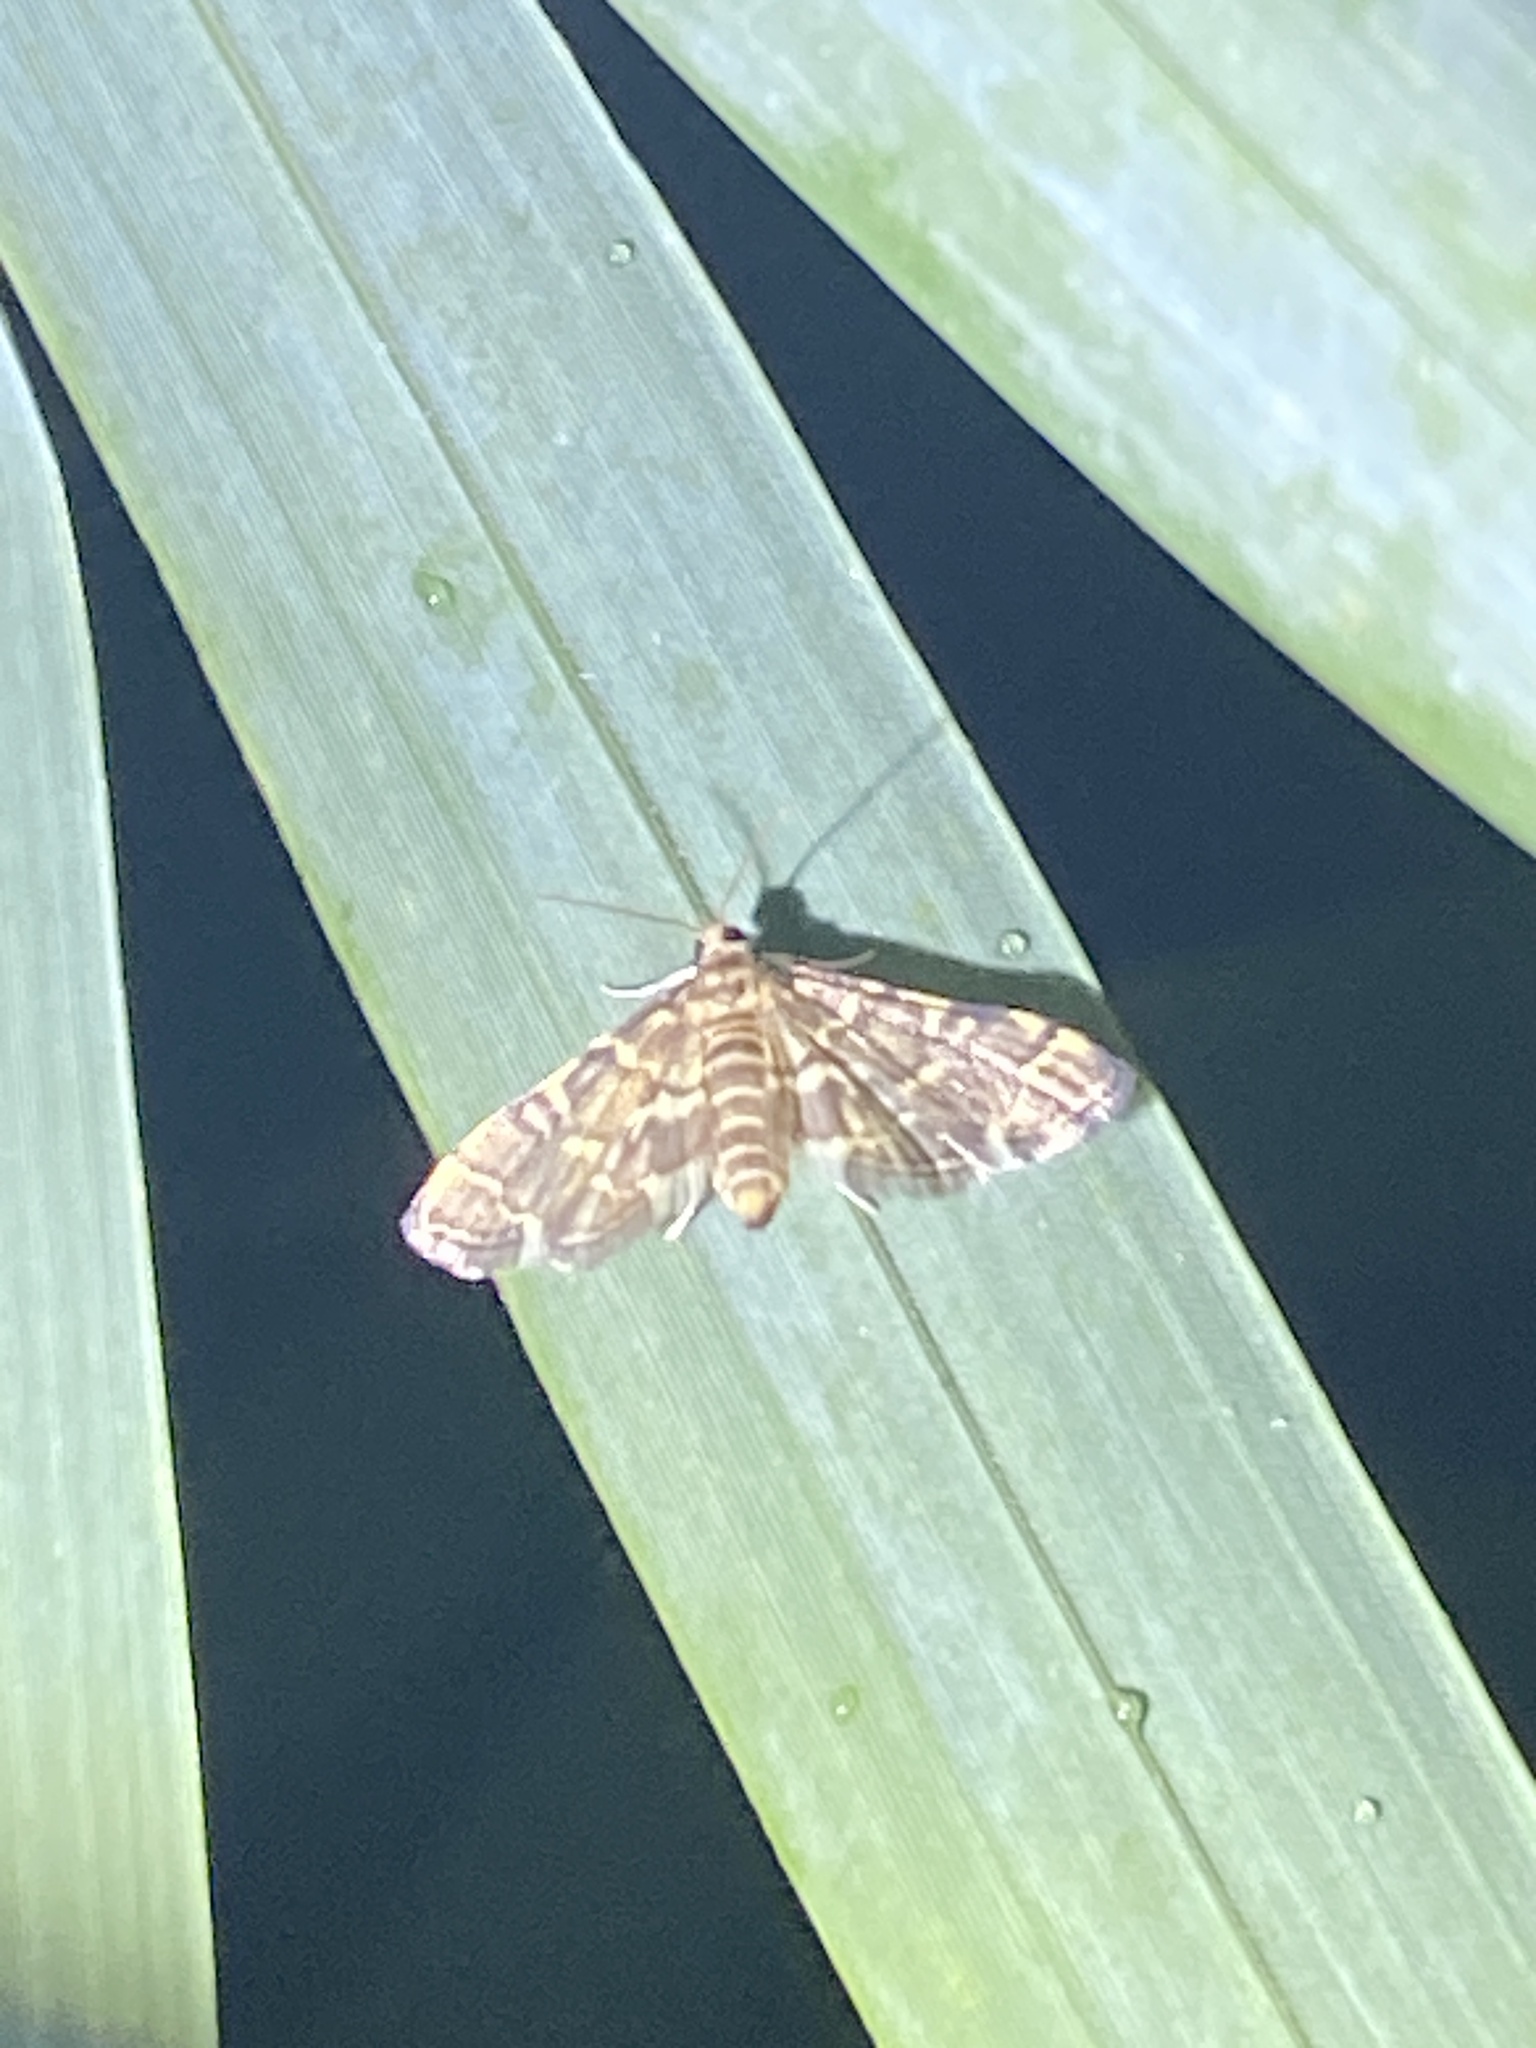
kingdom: Animalia
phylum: Arthropoda
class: Insecta
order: Lepidoptera
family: Crambidae
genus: Anageshna
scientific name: Anageshna primordialis
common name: Yellow-spotted webworm moth
